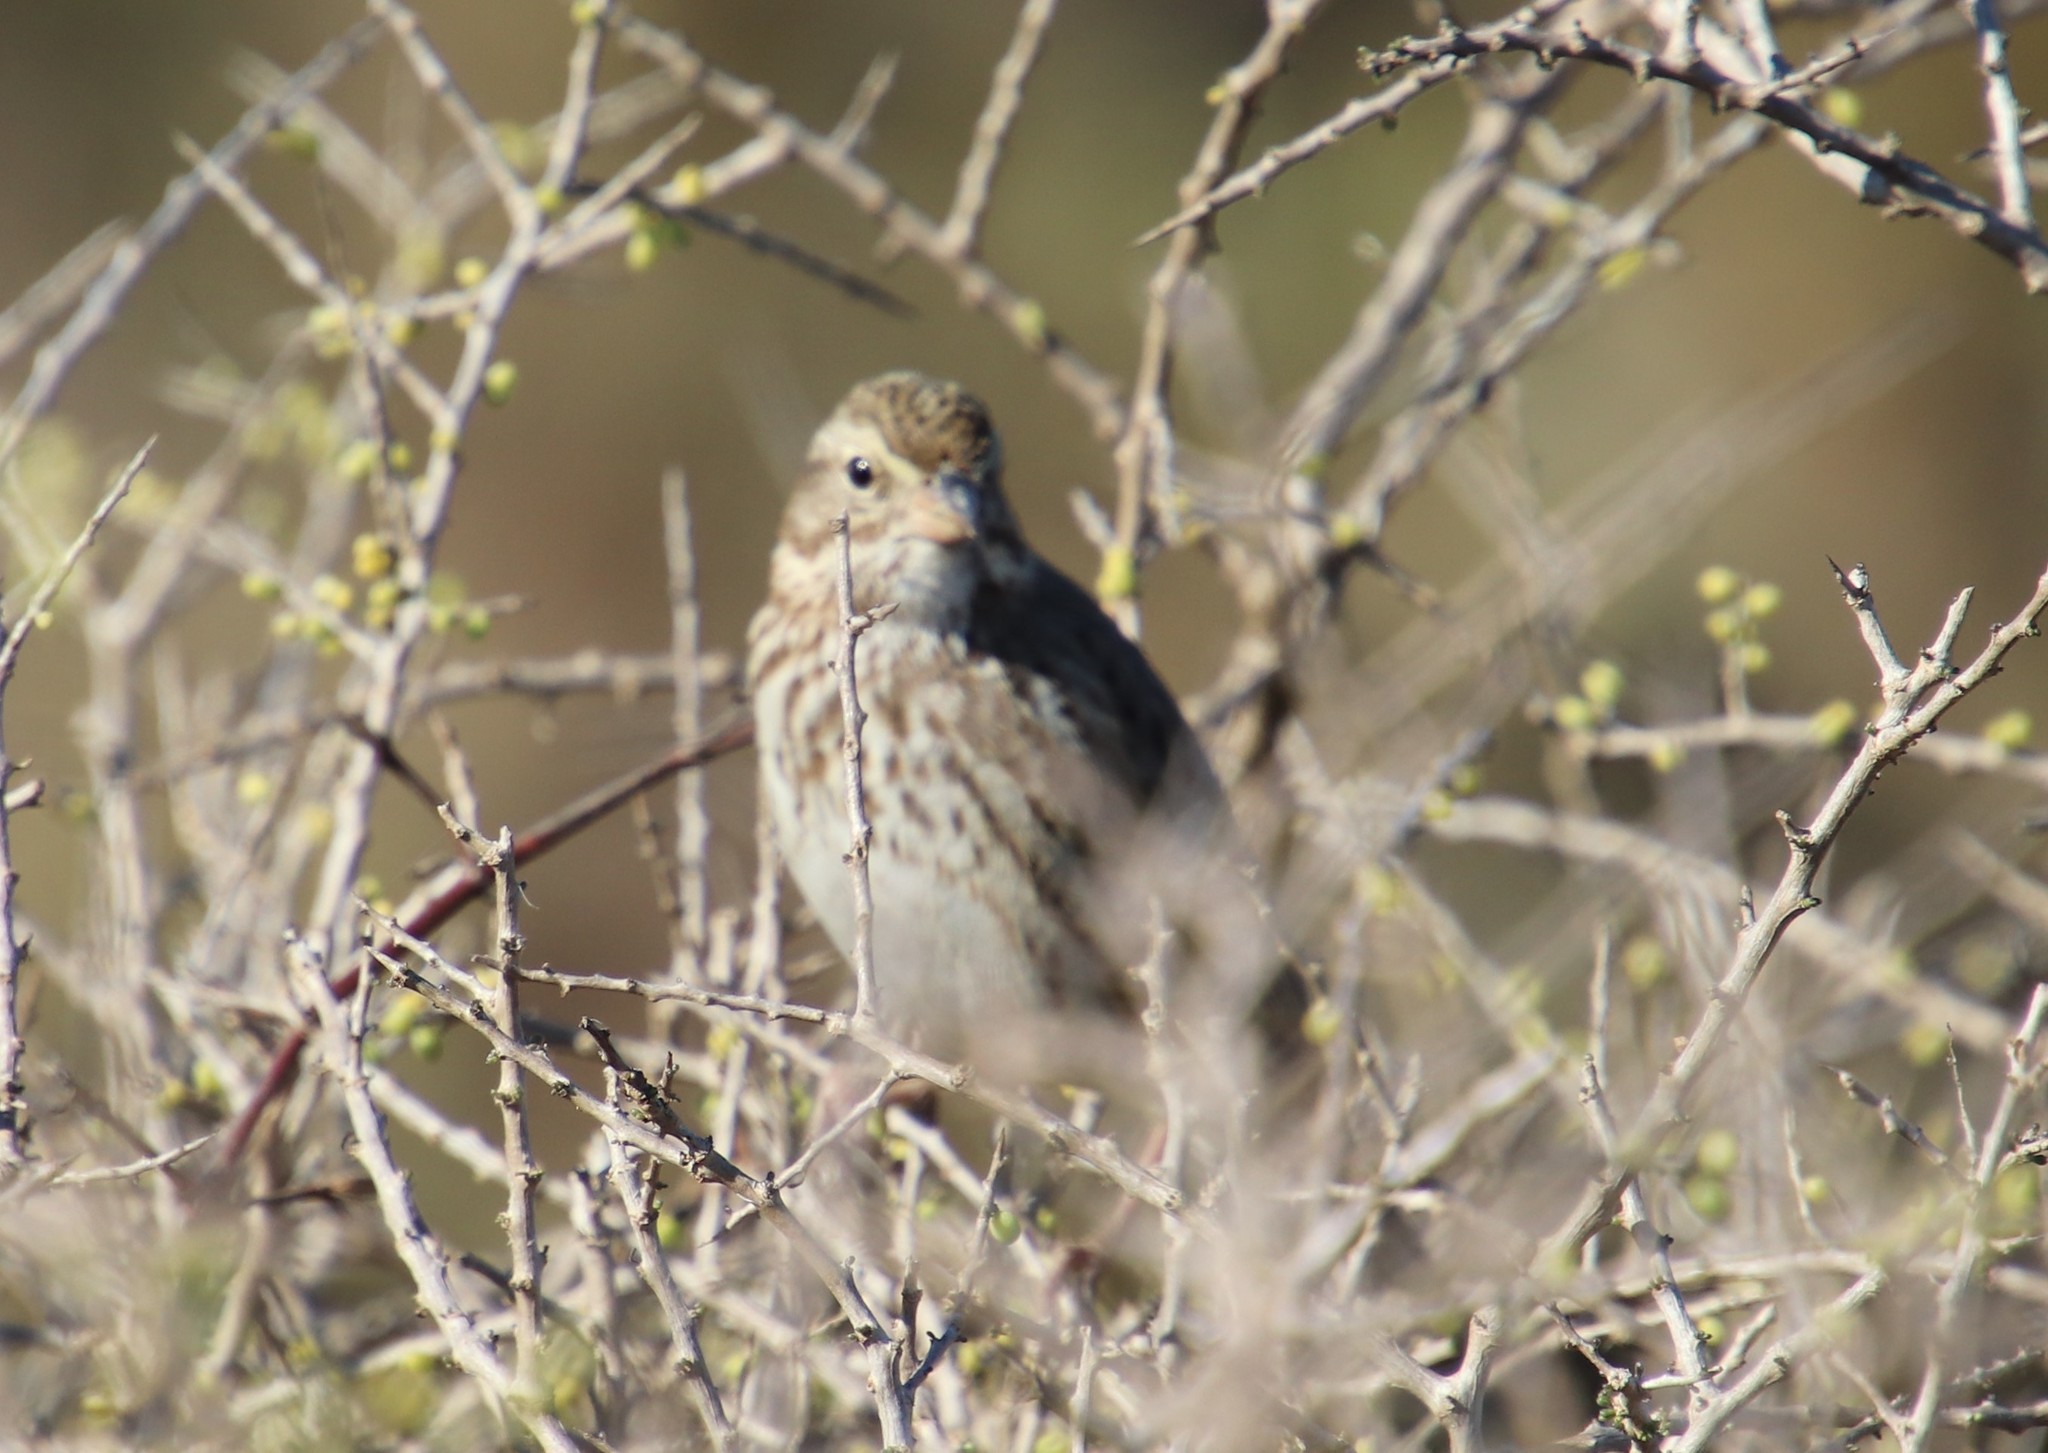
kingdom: Animalia
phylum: Chordata
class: Aves
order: Passeriformes
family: Passerellidae
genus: Passerculus
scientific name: Passerculus sandwichensis
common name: Savannah sparrow
